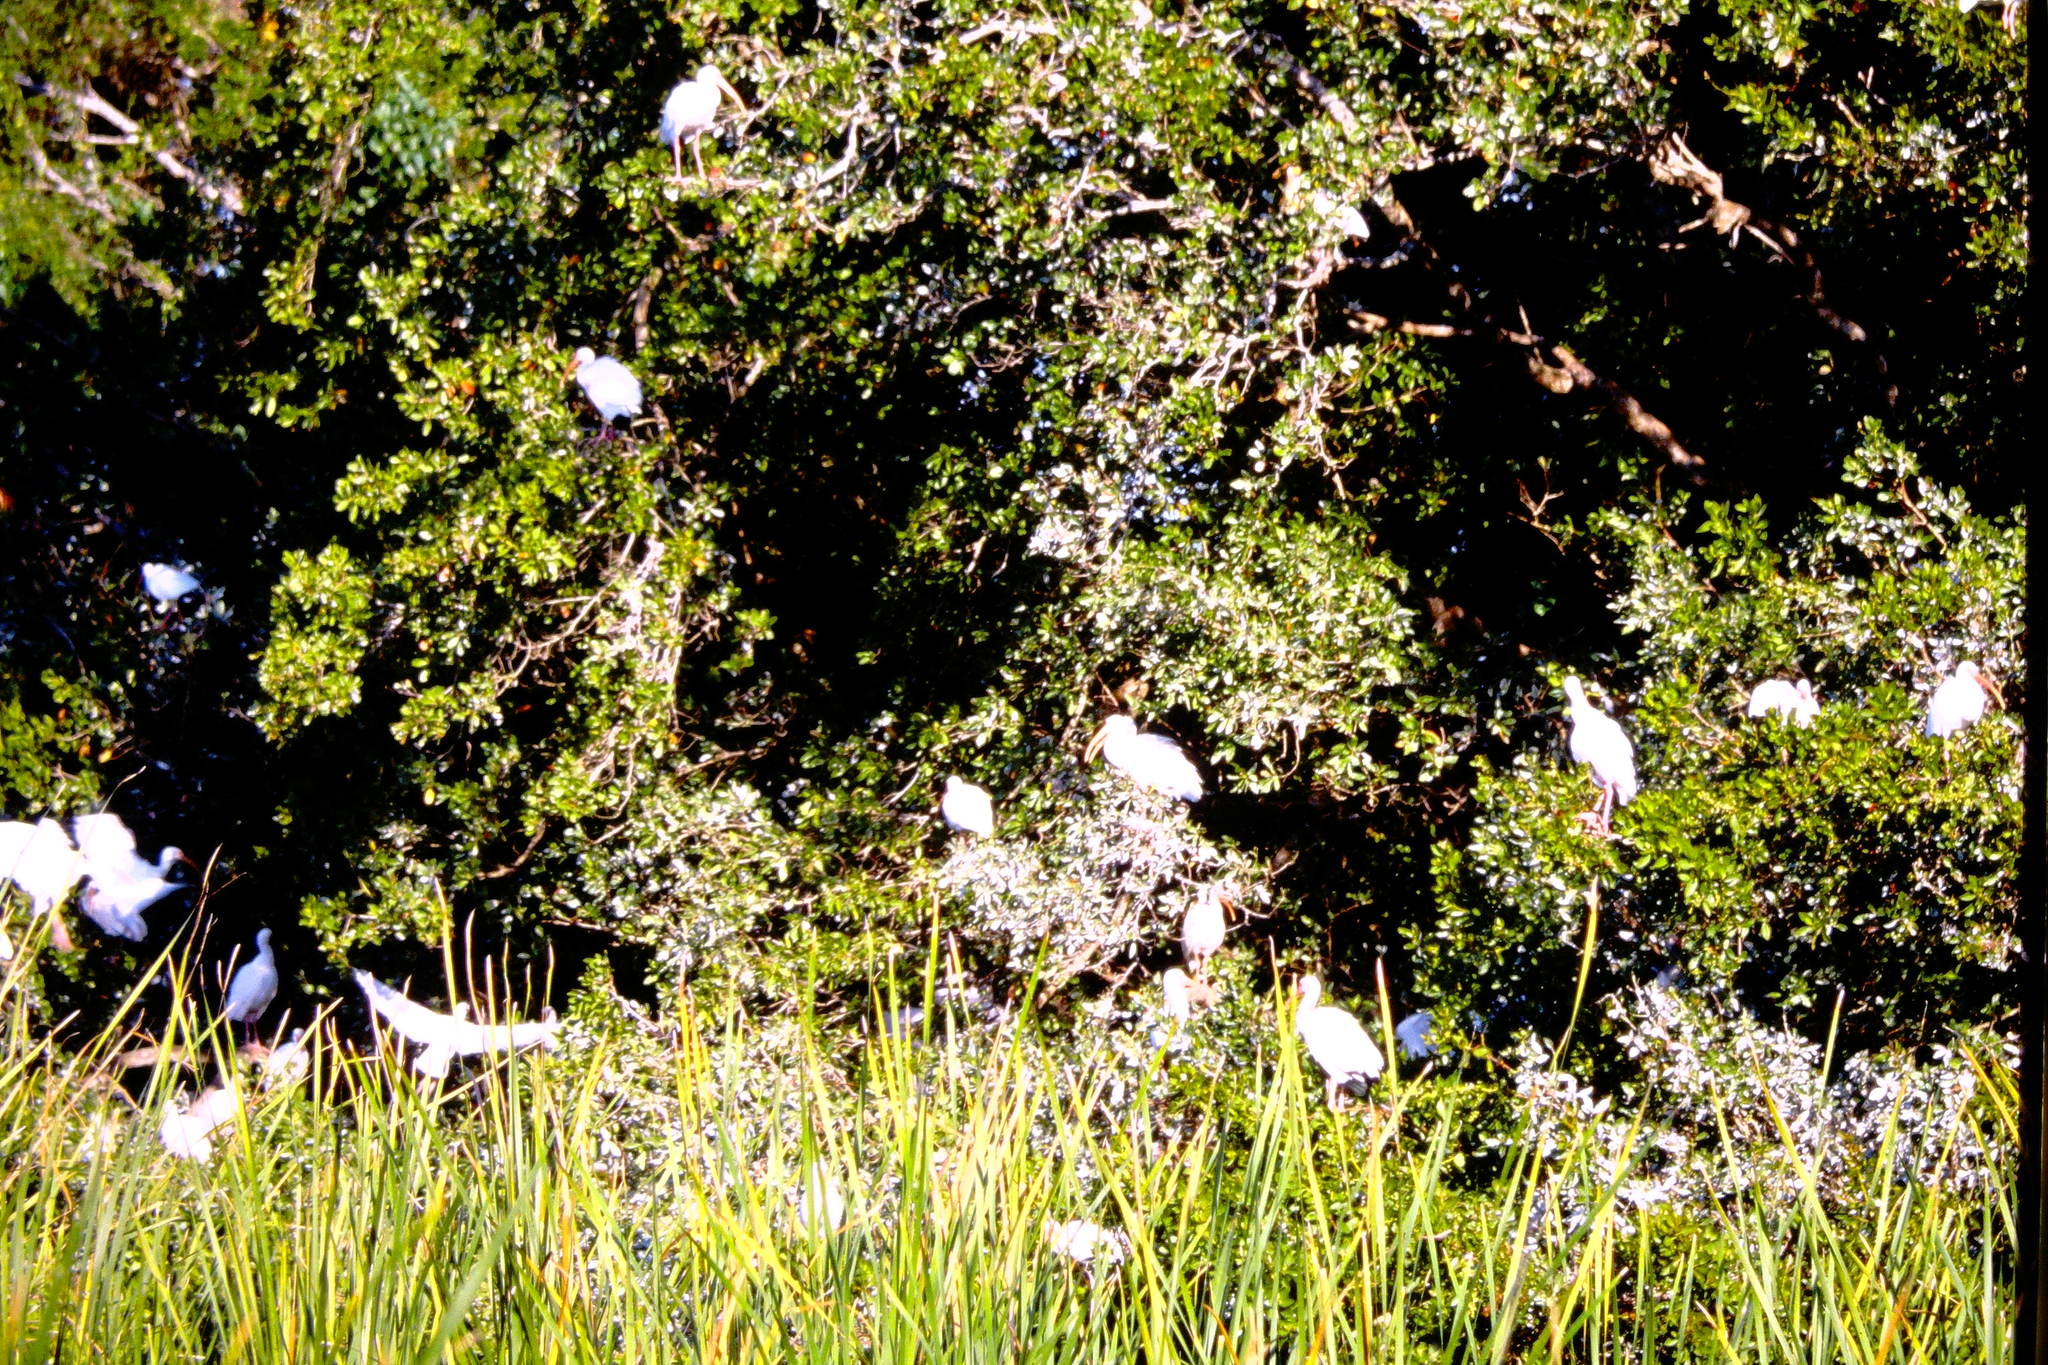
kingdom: Animalia
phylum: Chordata
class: Aves
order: Pelecaniformes
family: Threskiornithidae
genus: Eudocimus
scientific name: Eudocimus albus
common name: White ibis
